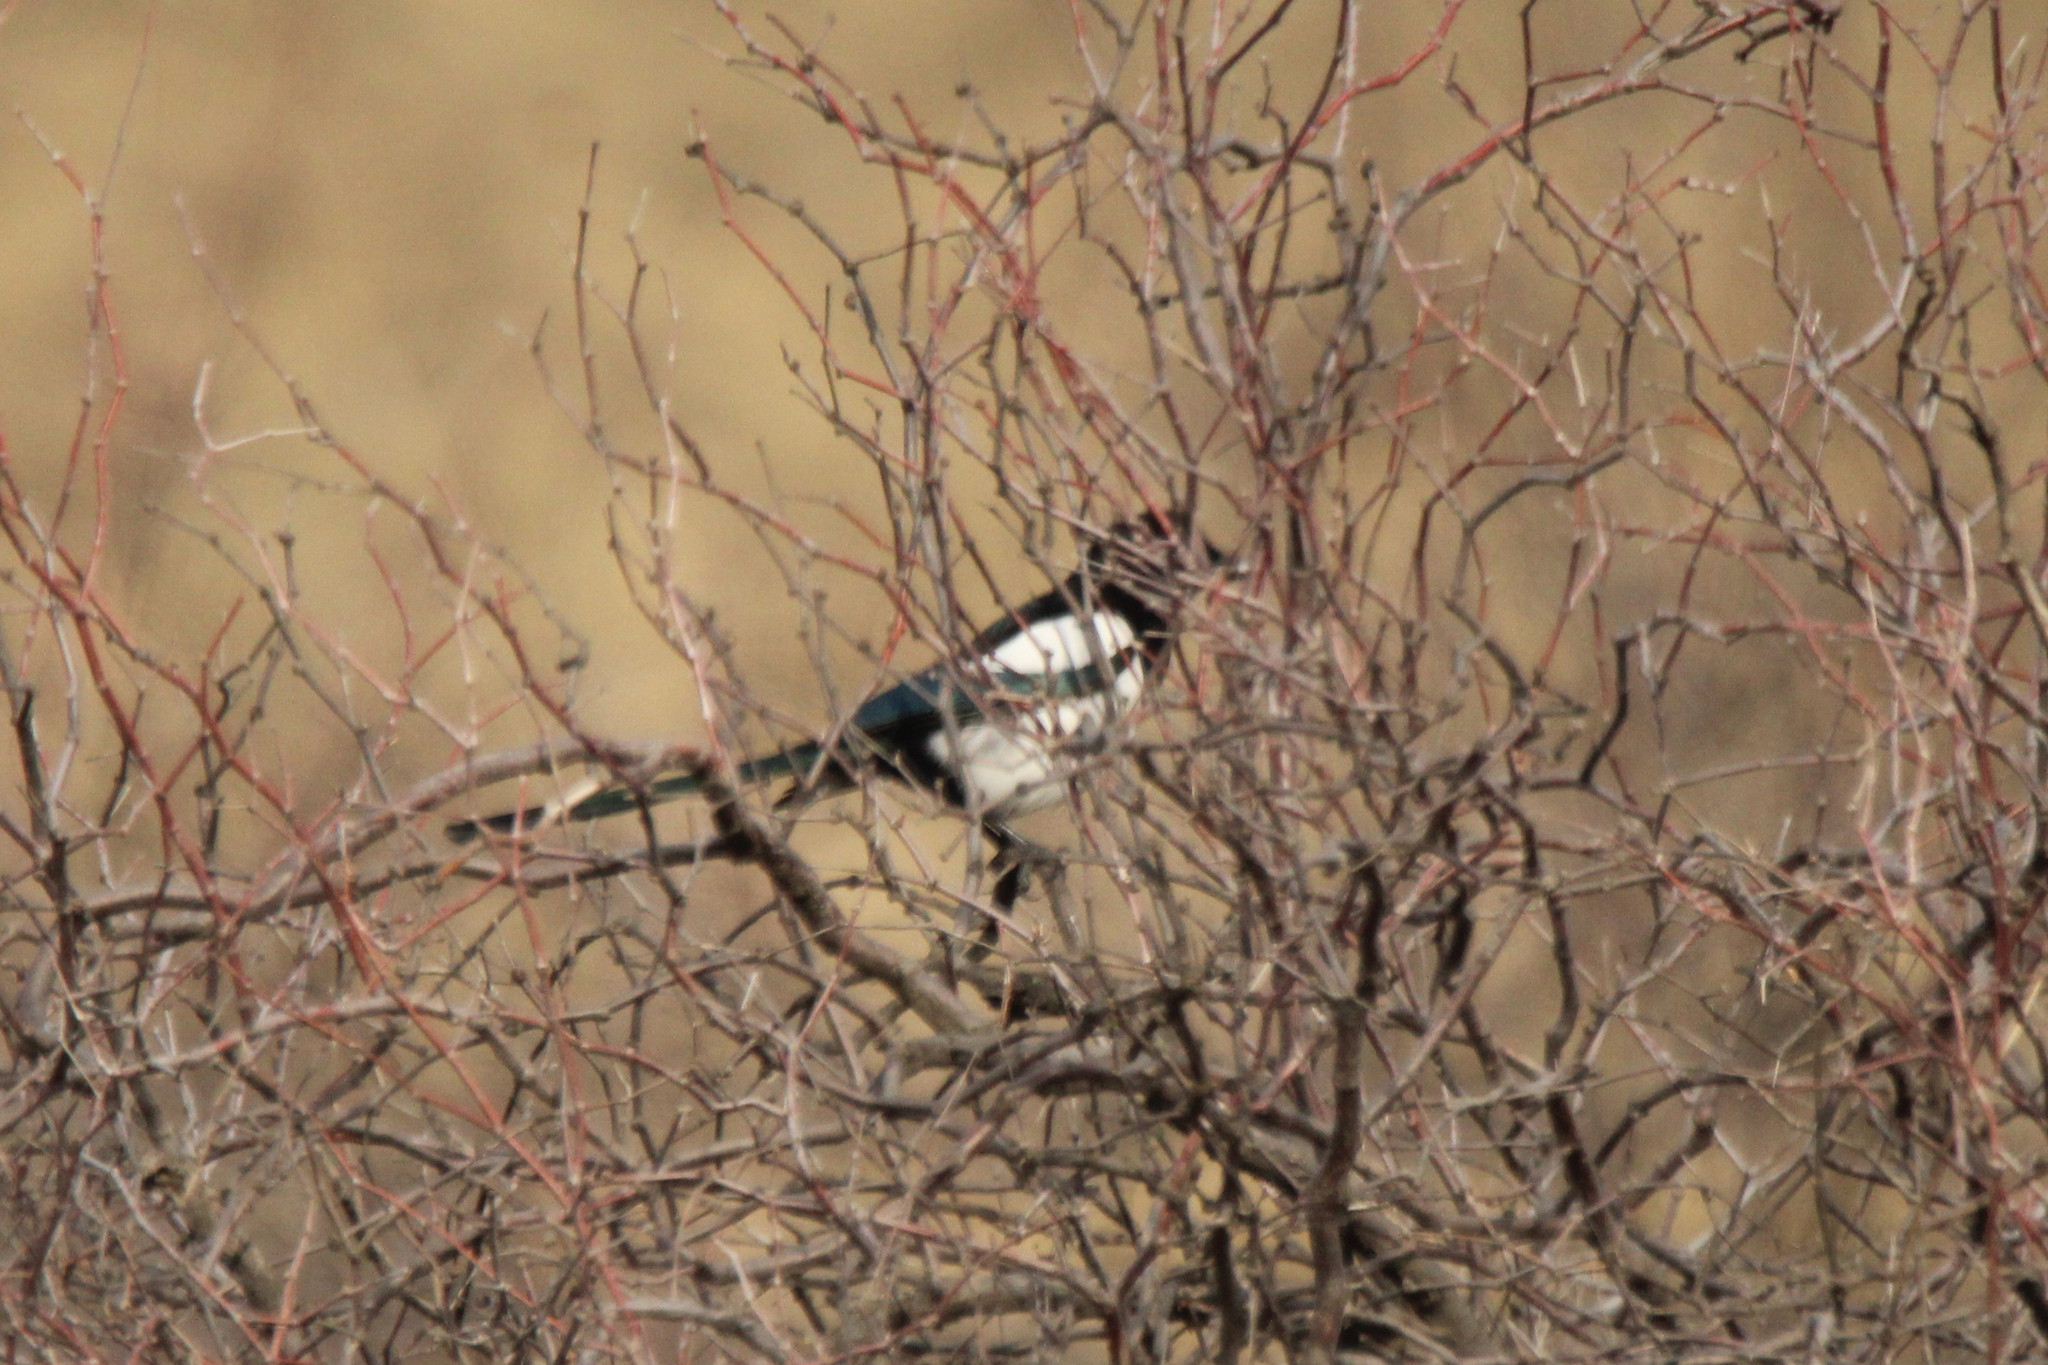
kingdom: Animalia
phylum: Chordata
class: Aves
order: Passeriformes
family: Corvidae
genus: Pica
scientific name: Pica pica
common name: Eurasian magpie
